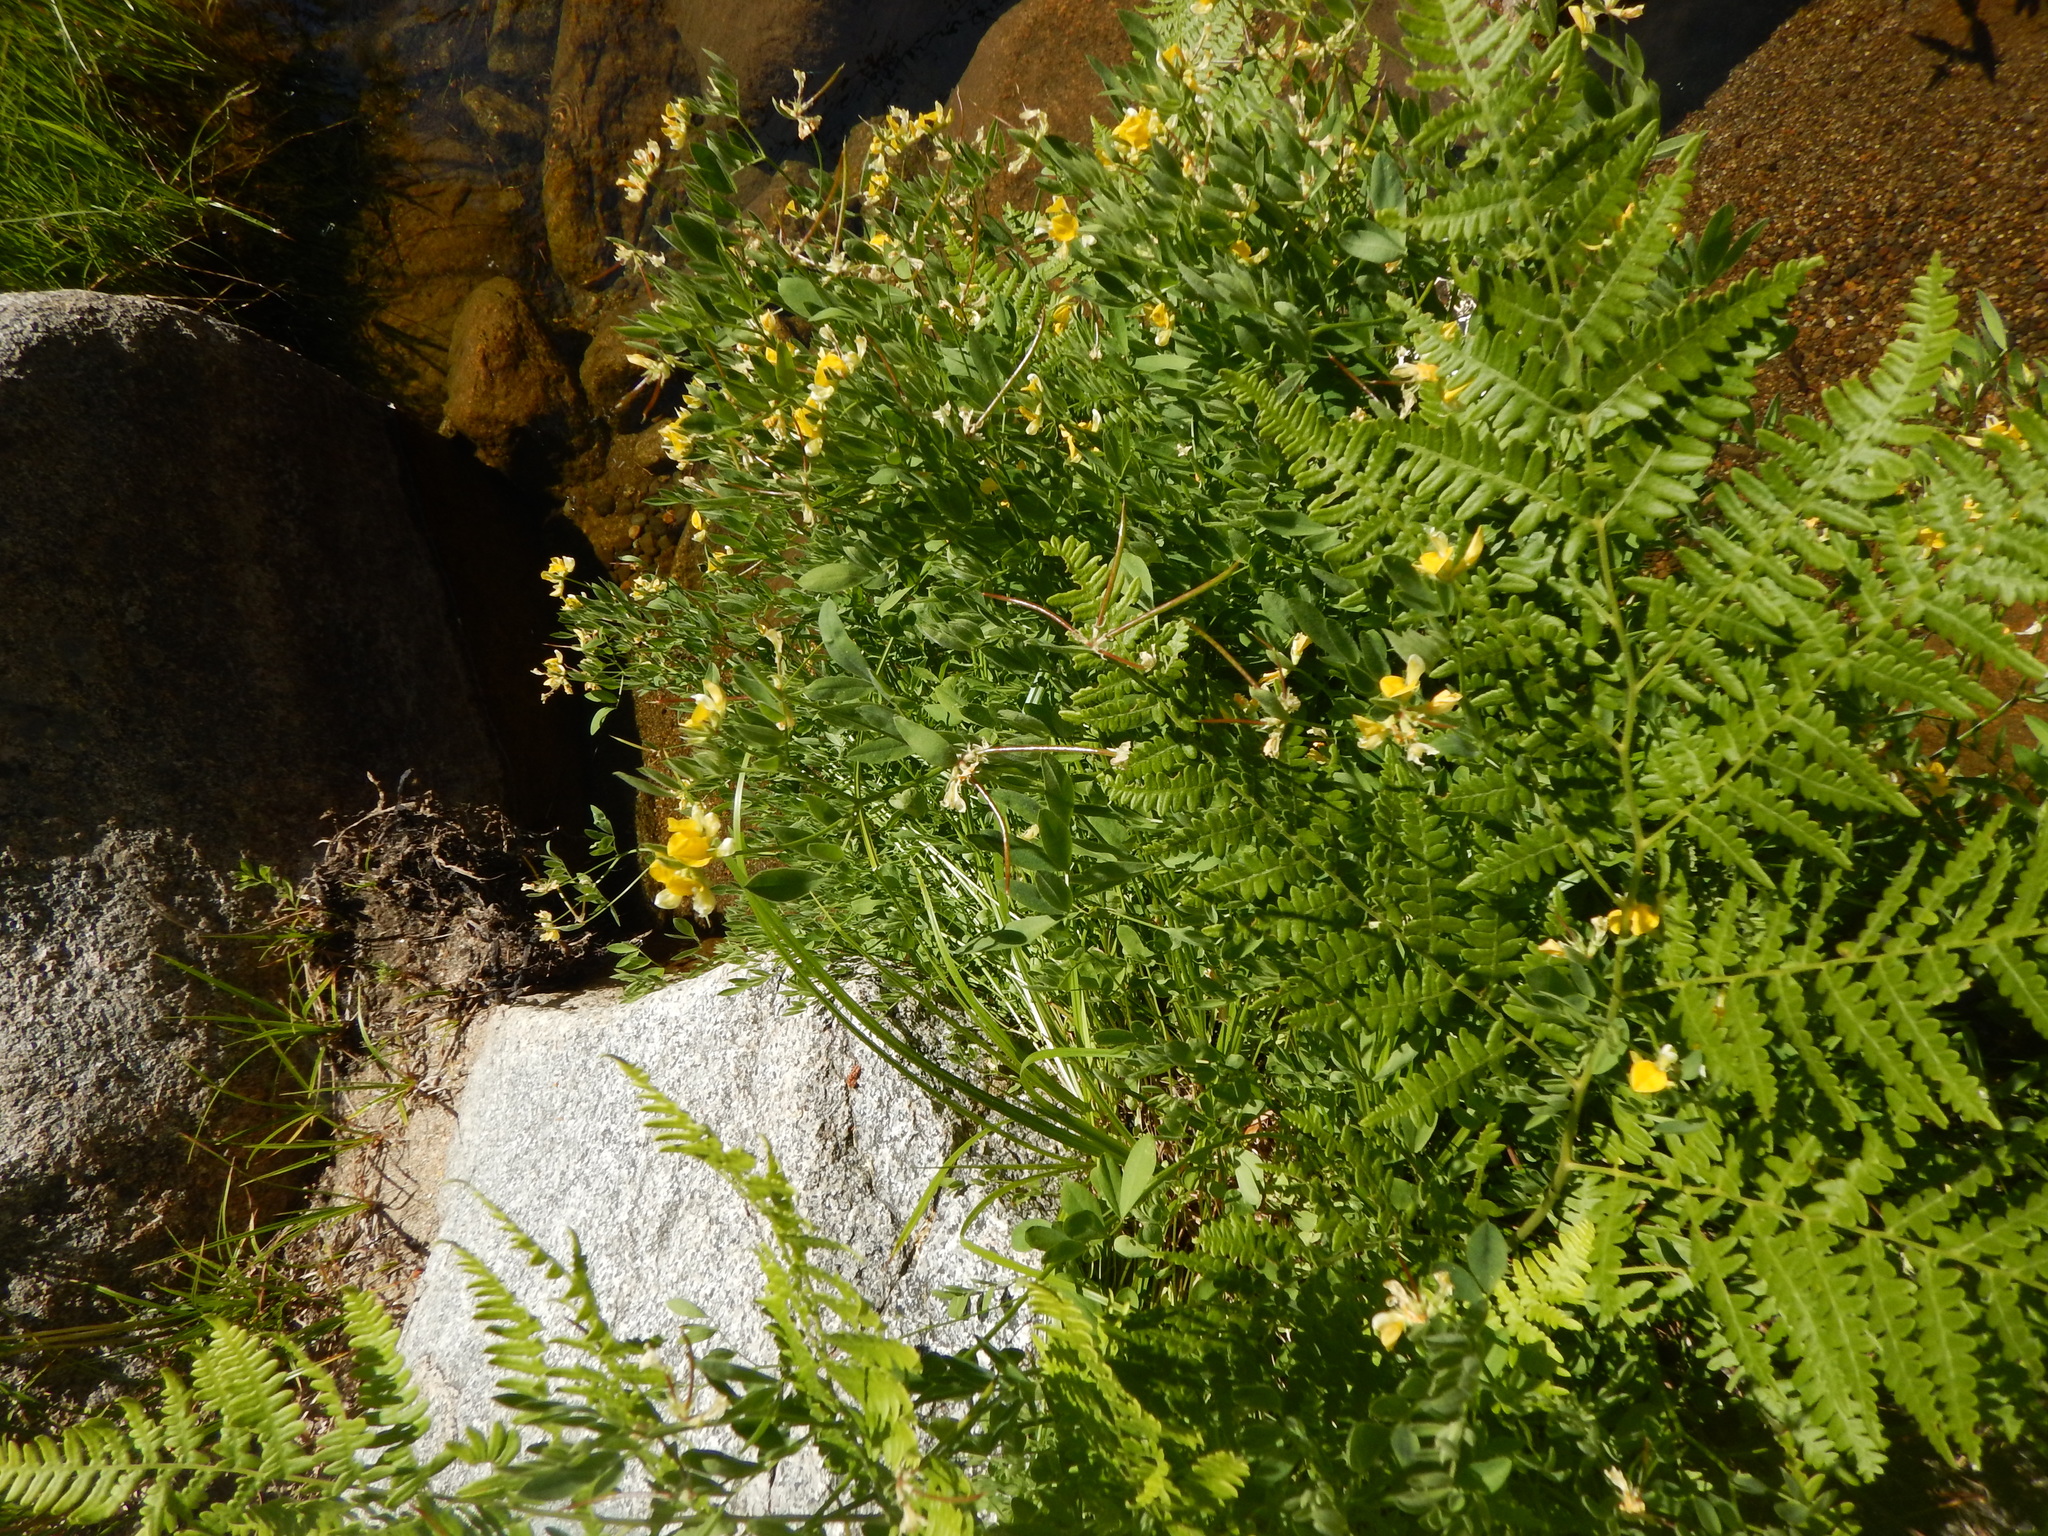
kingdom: Plantae
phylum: Tracheophyta
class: Magnoliopsida
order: Fabales
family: Fabaceae
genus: Hosackia
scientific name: Hosackia oblongifolia
